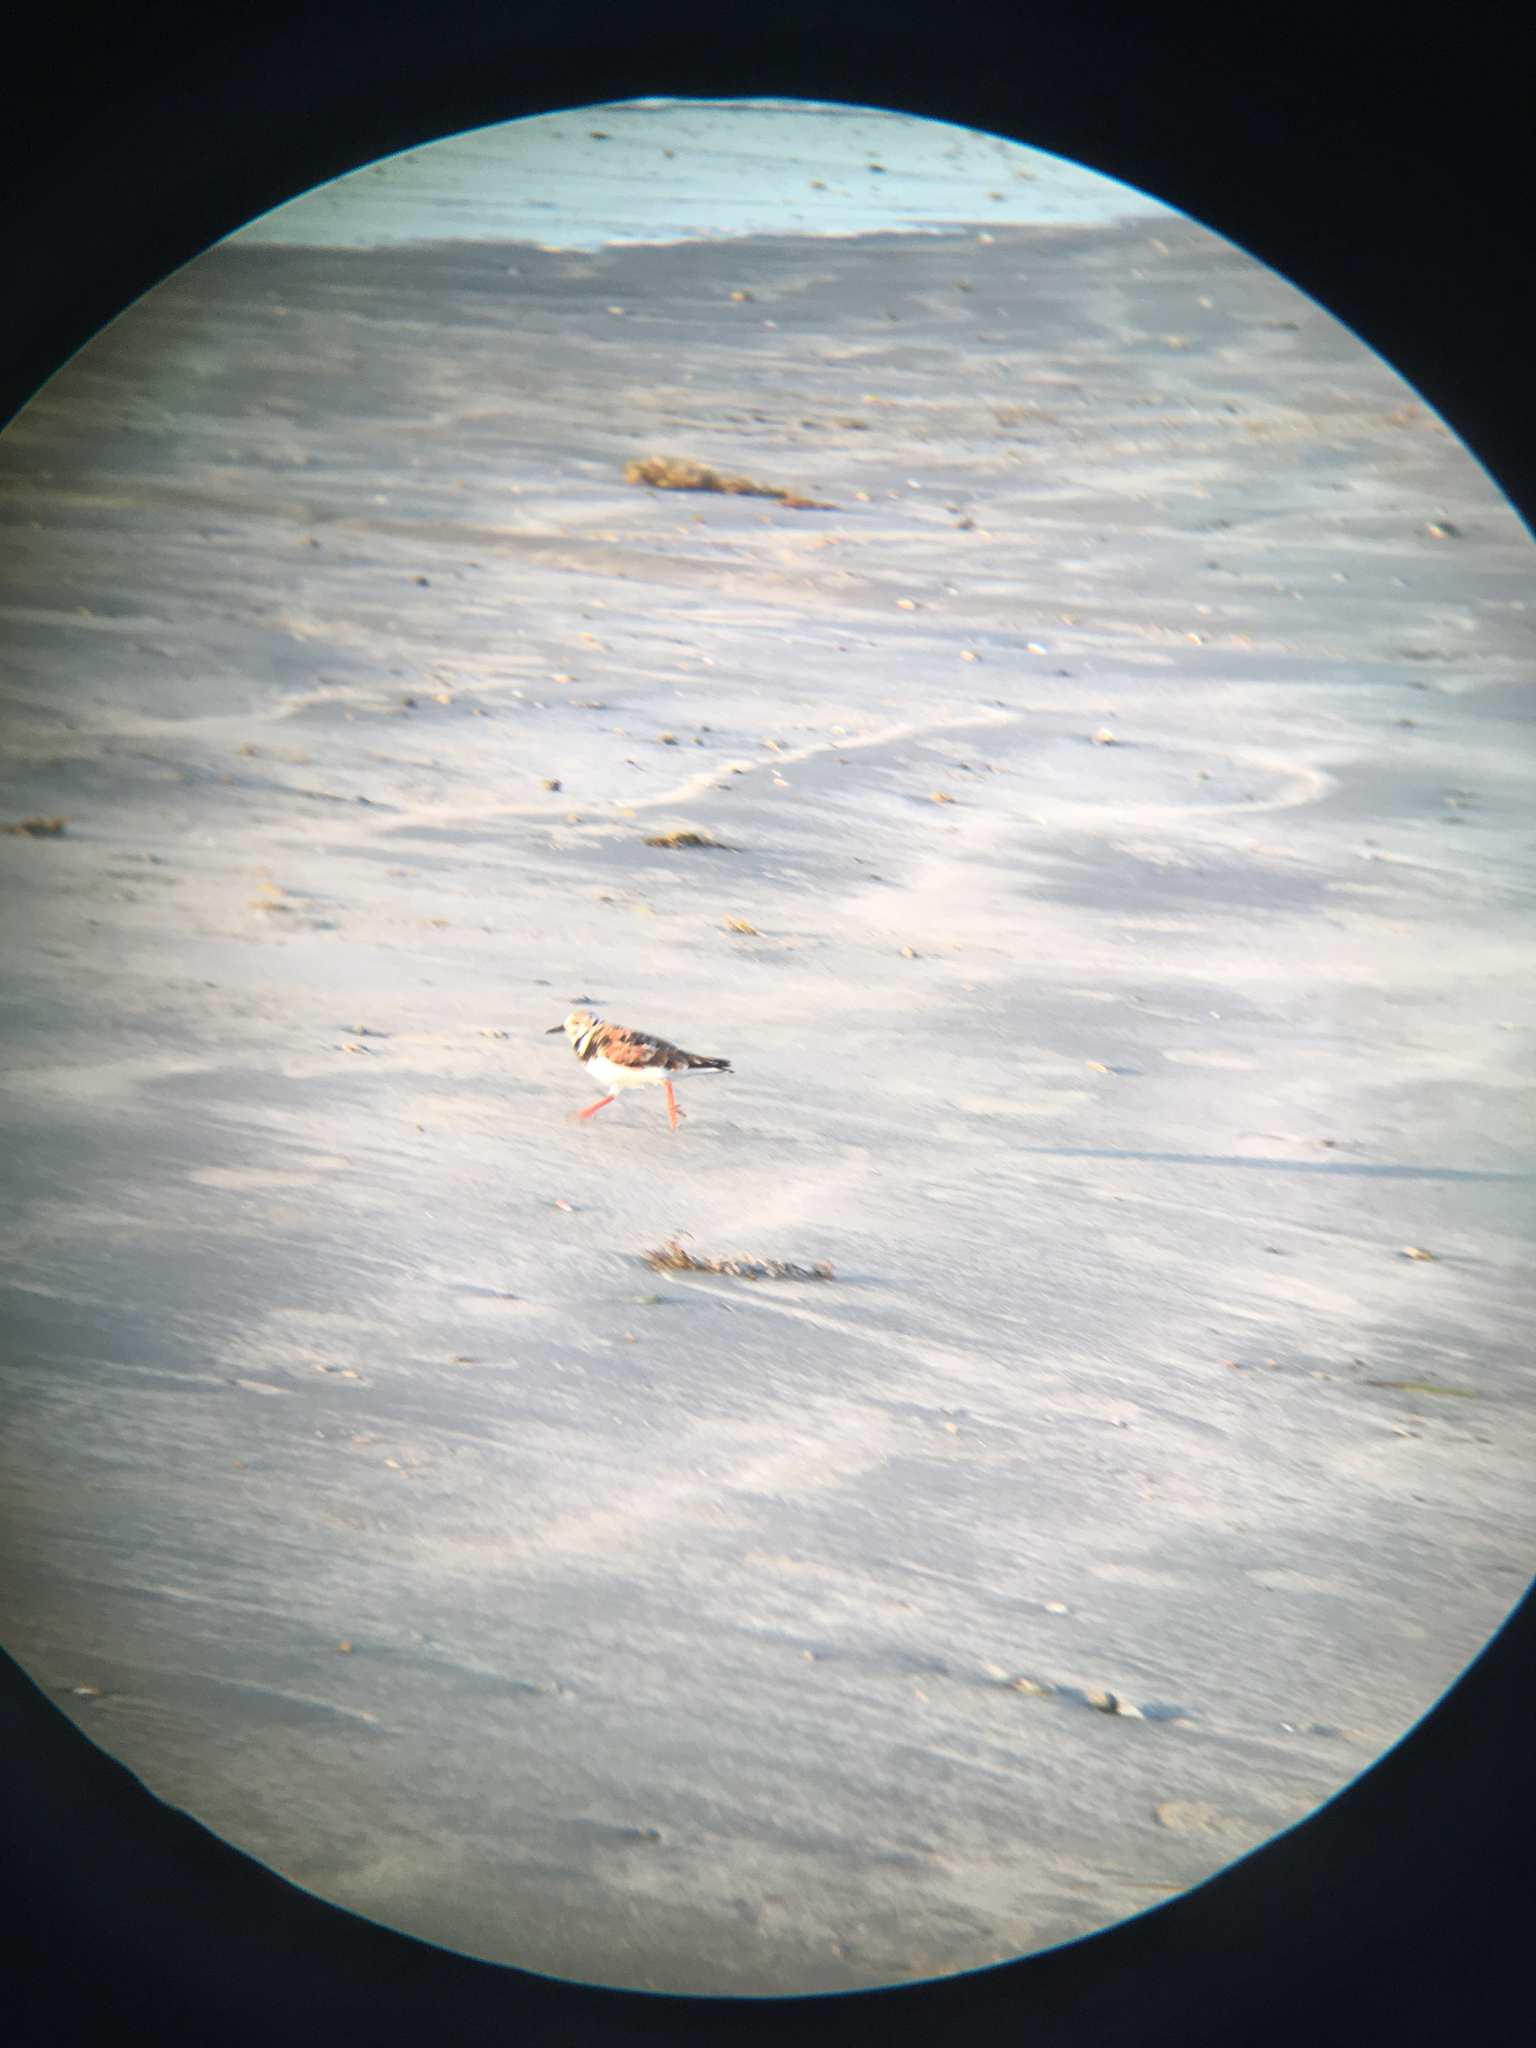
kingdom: Animalia
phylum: Chordata
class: Aves
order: Charadriiformes
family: Scolopacidae
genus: Arenaria
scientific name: Arenaria interpres
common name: Ruddy turnstone
